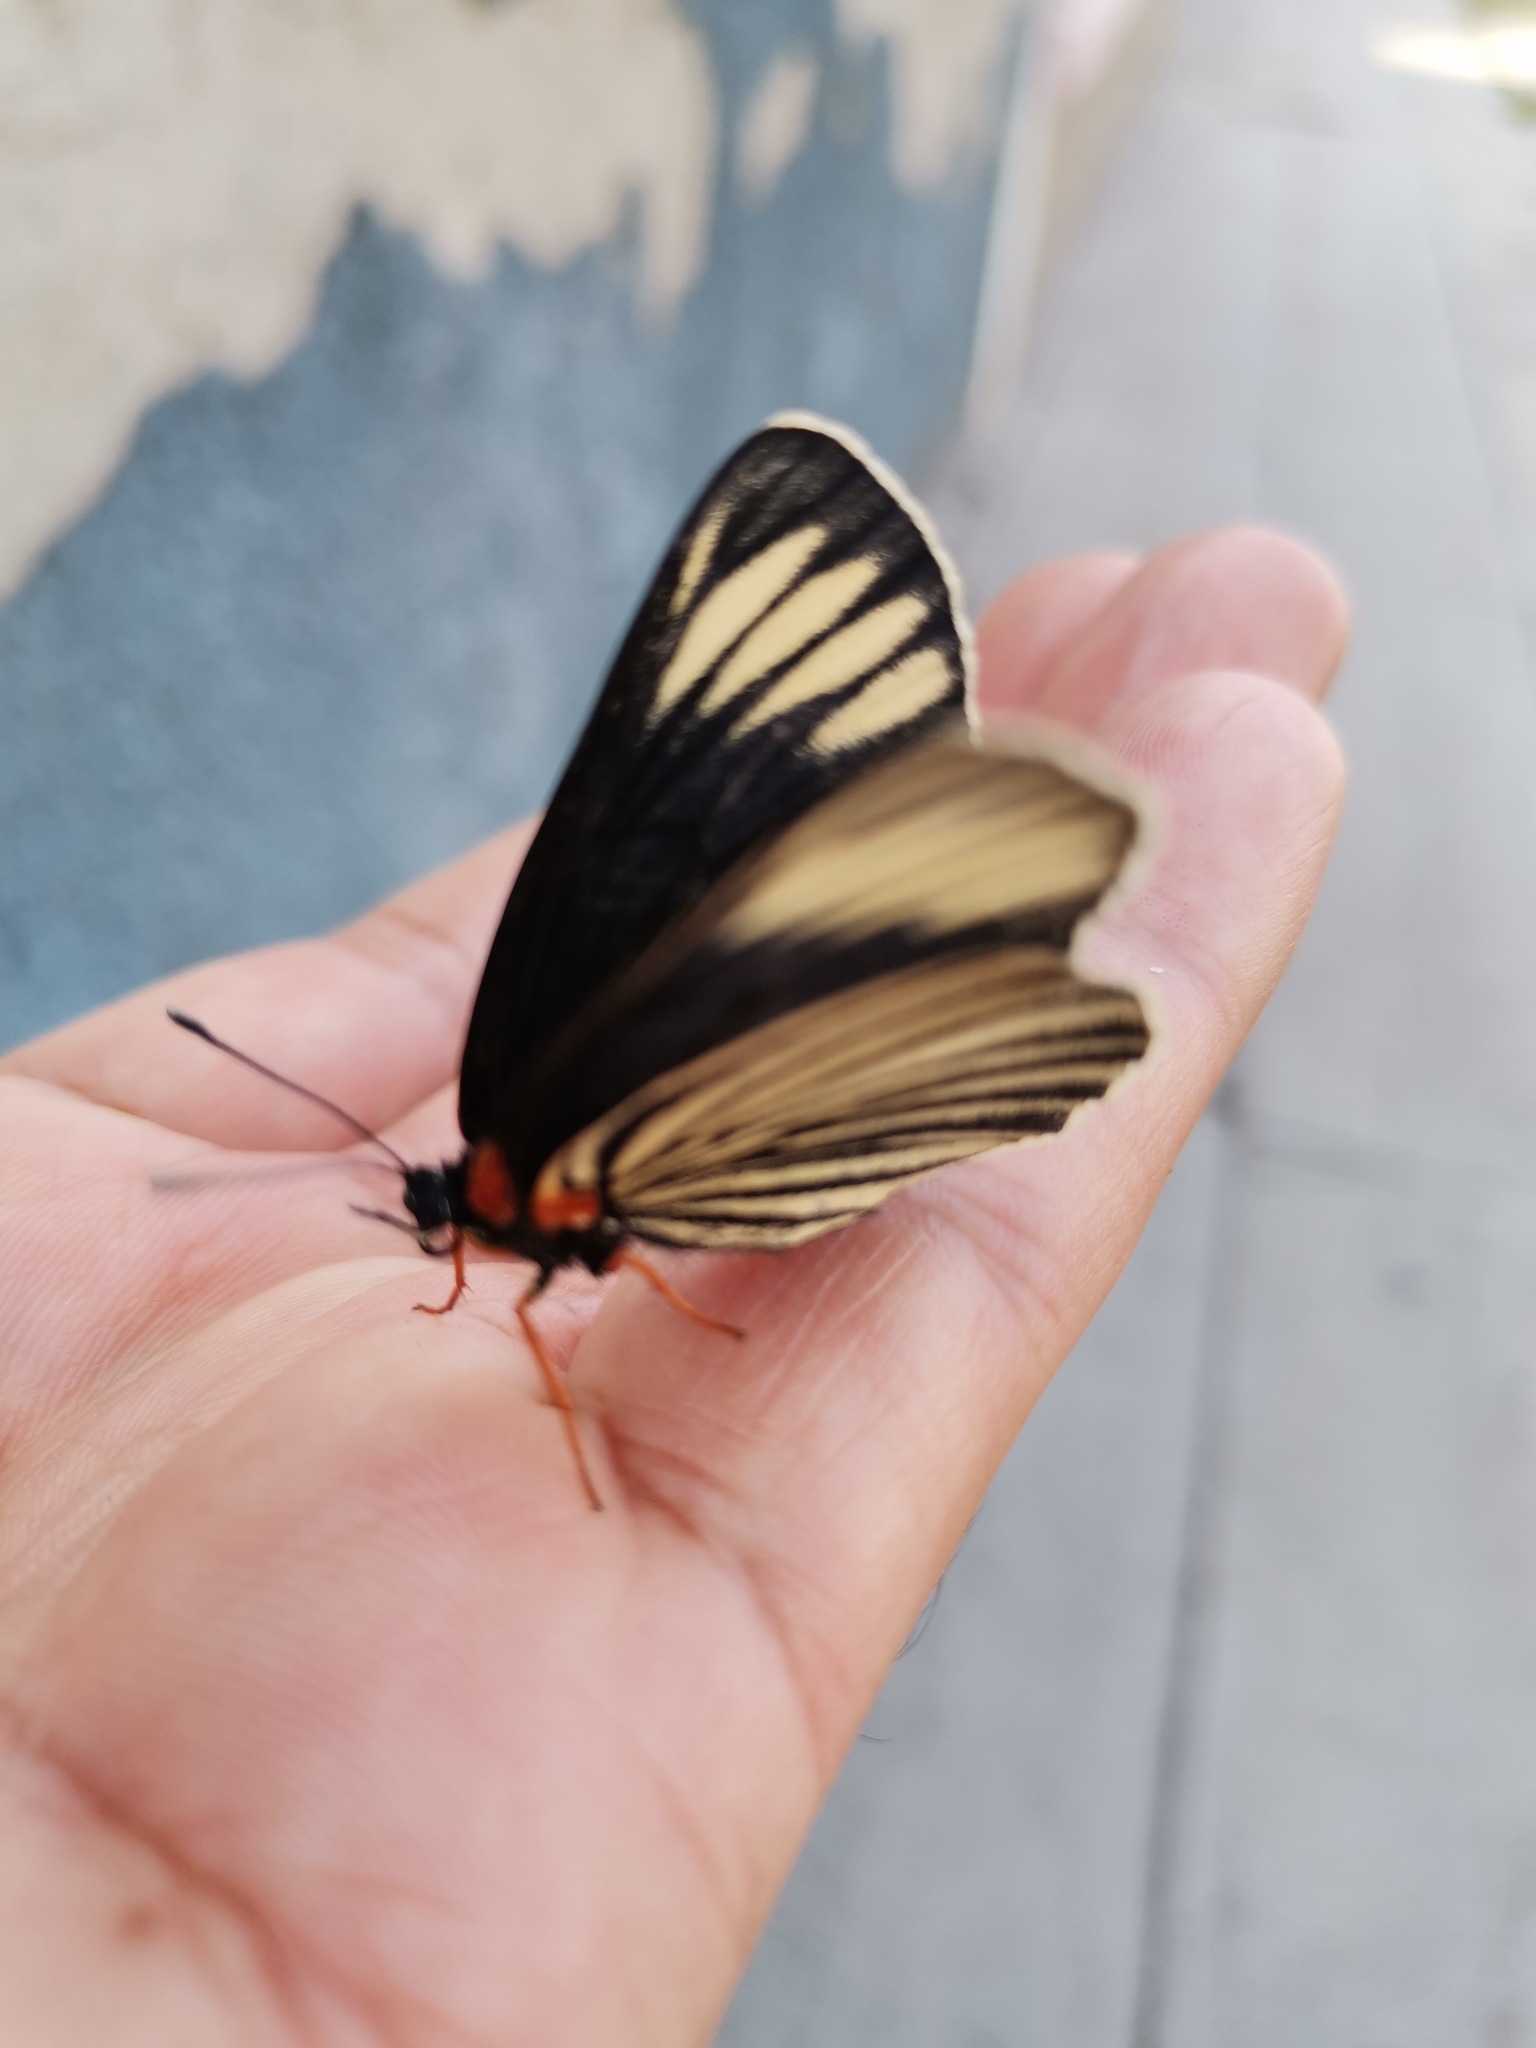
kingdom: Animalia
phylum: Arthropoda
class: Insecta
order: Lepidoptera
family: Nymphalidae
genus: Chlosyne
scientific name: Chlosyne ehrenbergii
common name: White-rayed patch
